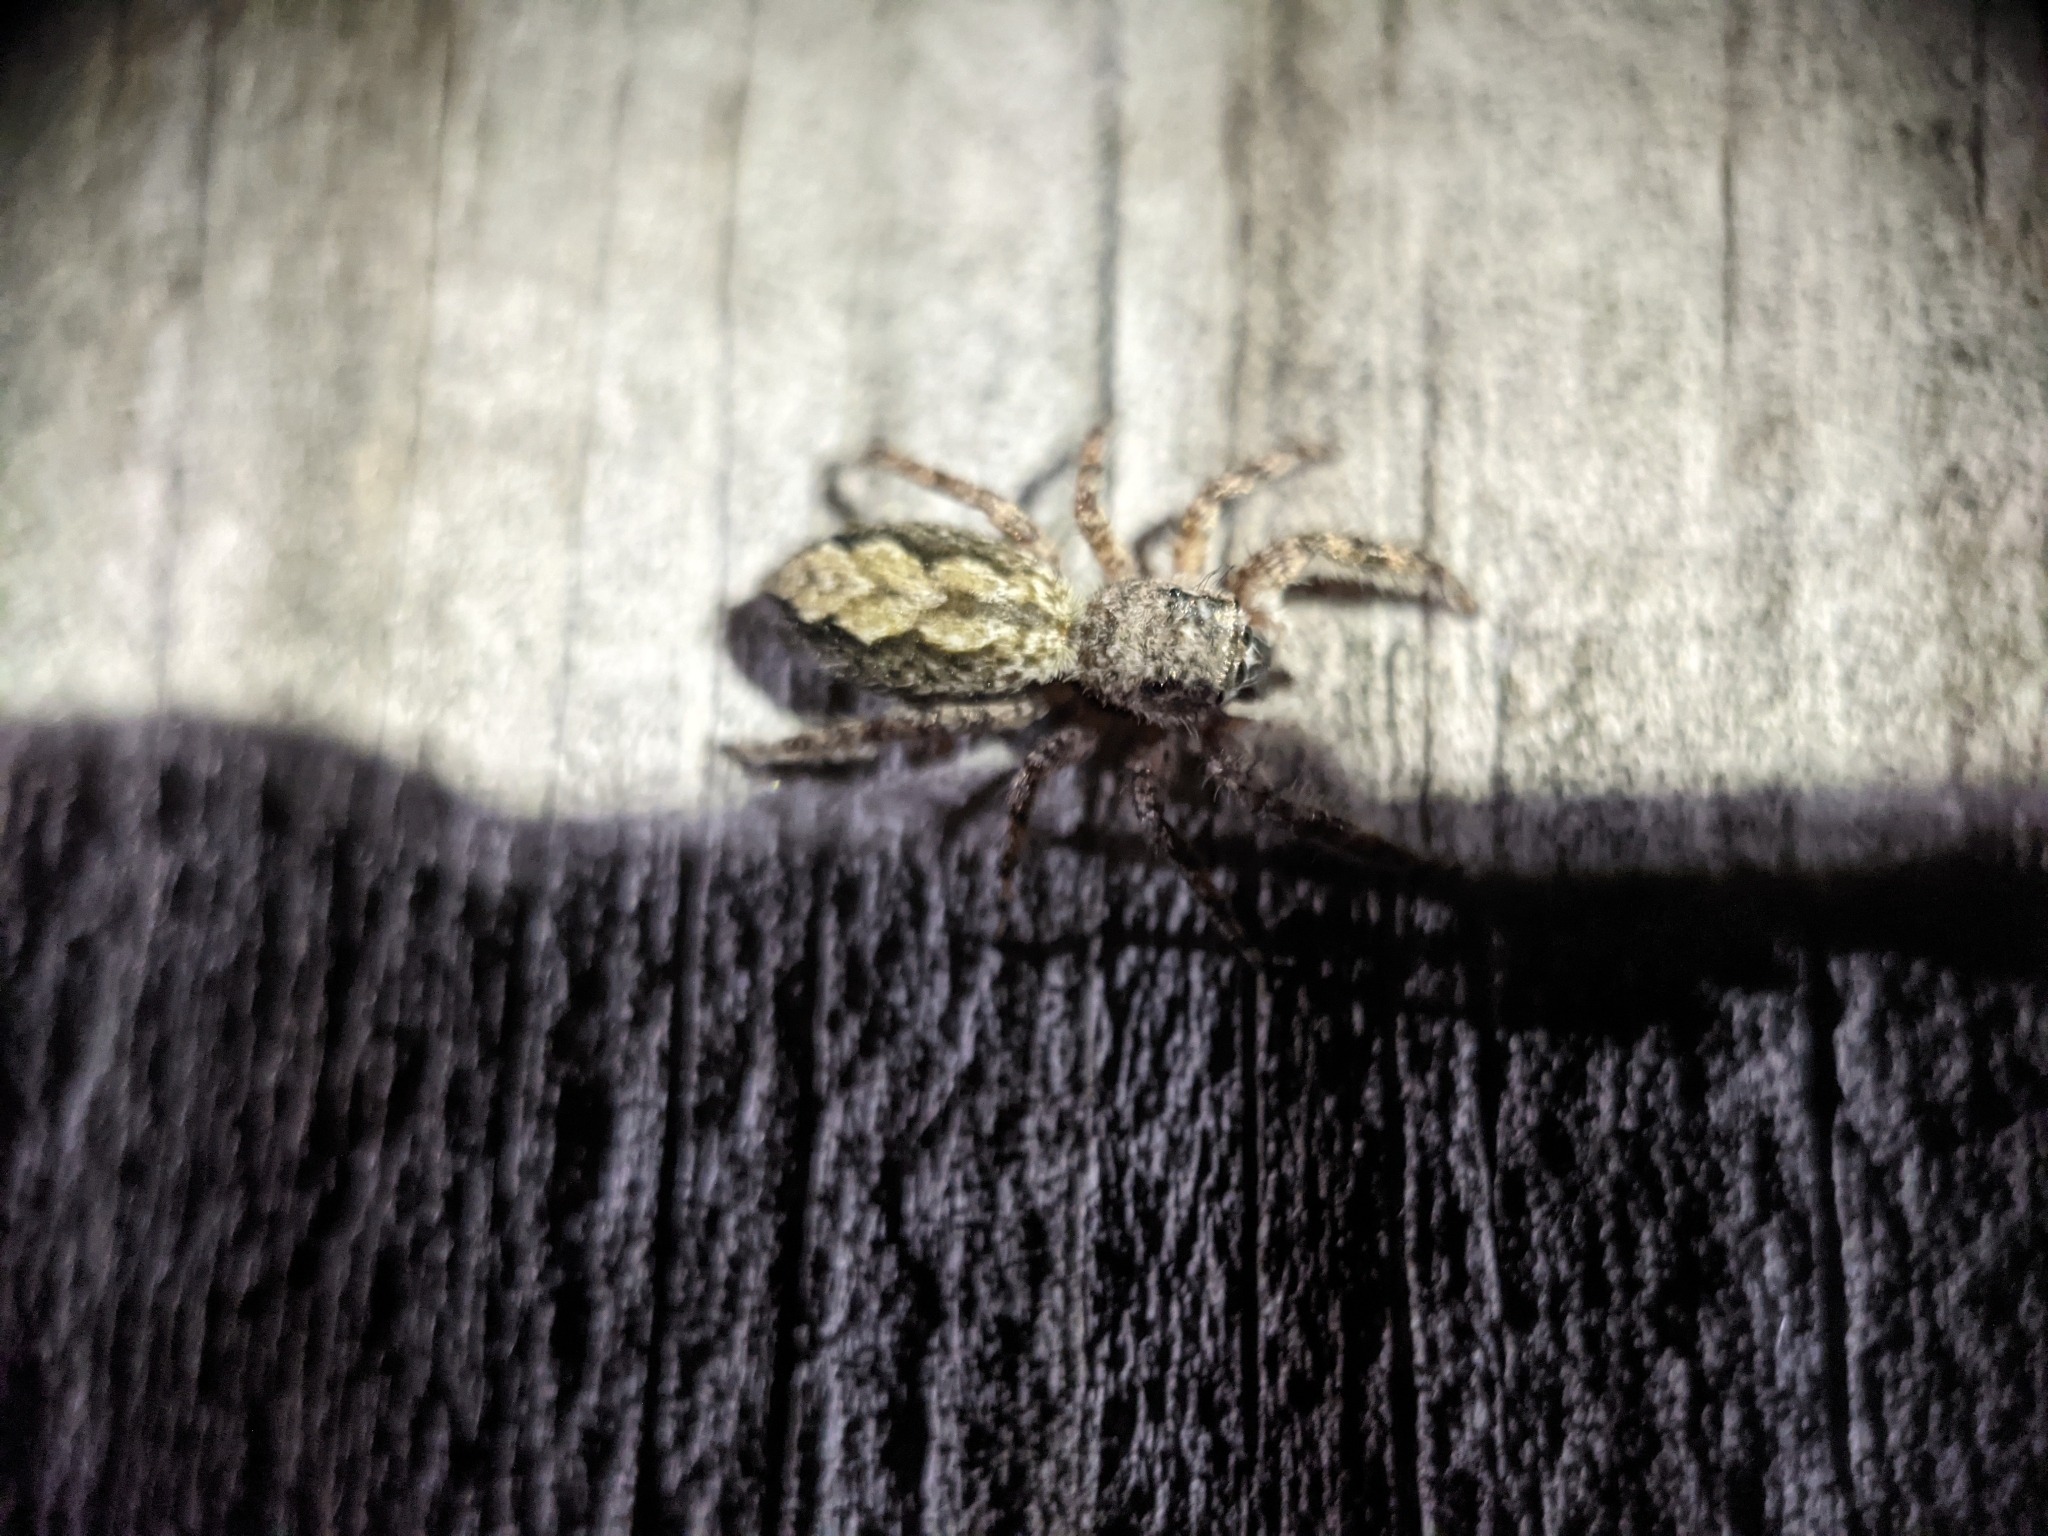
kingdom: Animalia
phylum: Arthropoda
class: Arachnida
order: Araneae
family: Salticidae
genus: Platycryptus
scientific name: Platycryptus undatus
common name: Tan jumping spider
